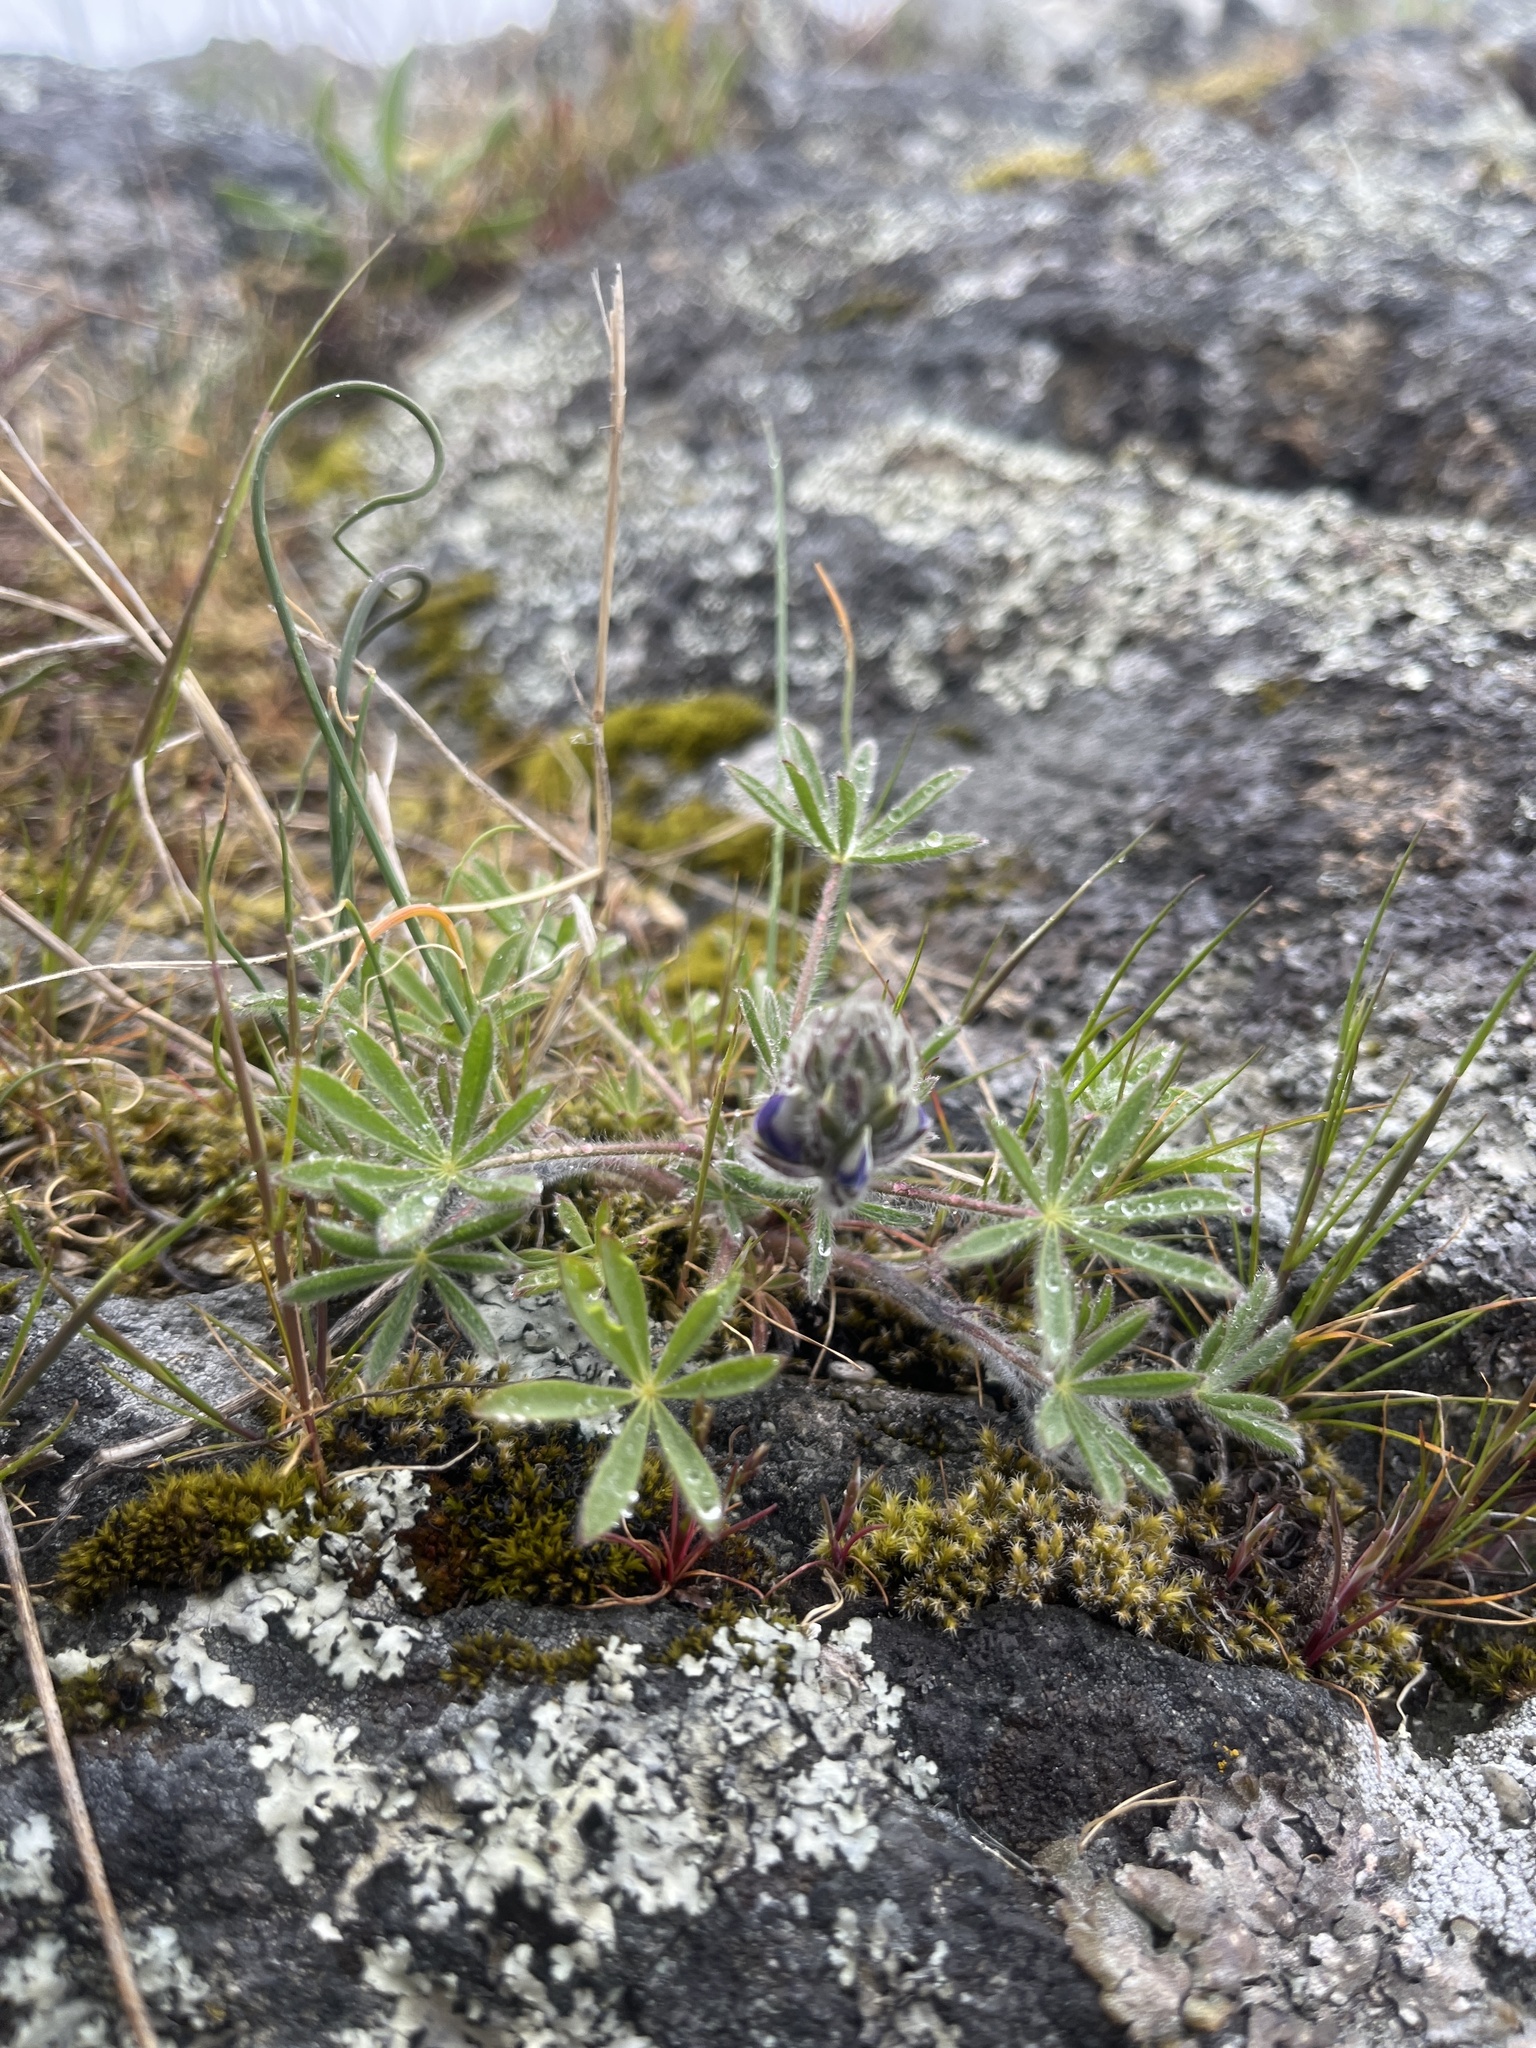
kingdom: Plantae
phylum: Tracheophyta
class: Magnoliopsida
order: Fabales
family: Fabaceae
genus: Lupinus
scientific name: Lupinus bicolor
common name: Miniature lupine
